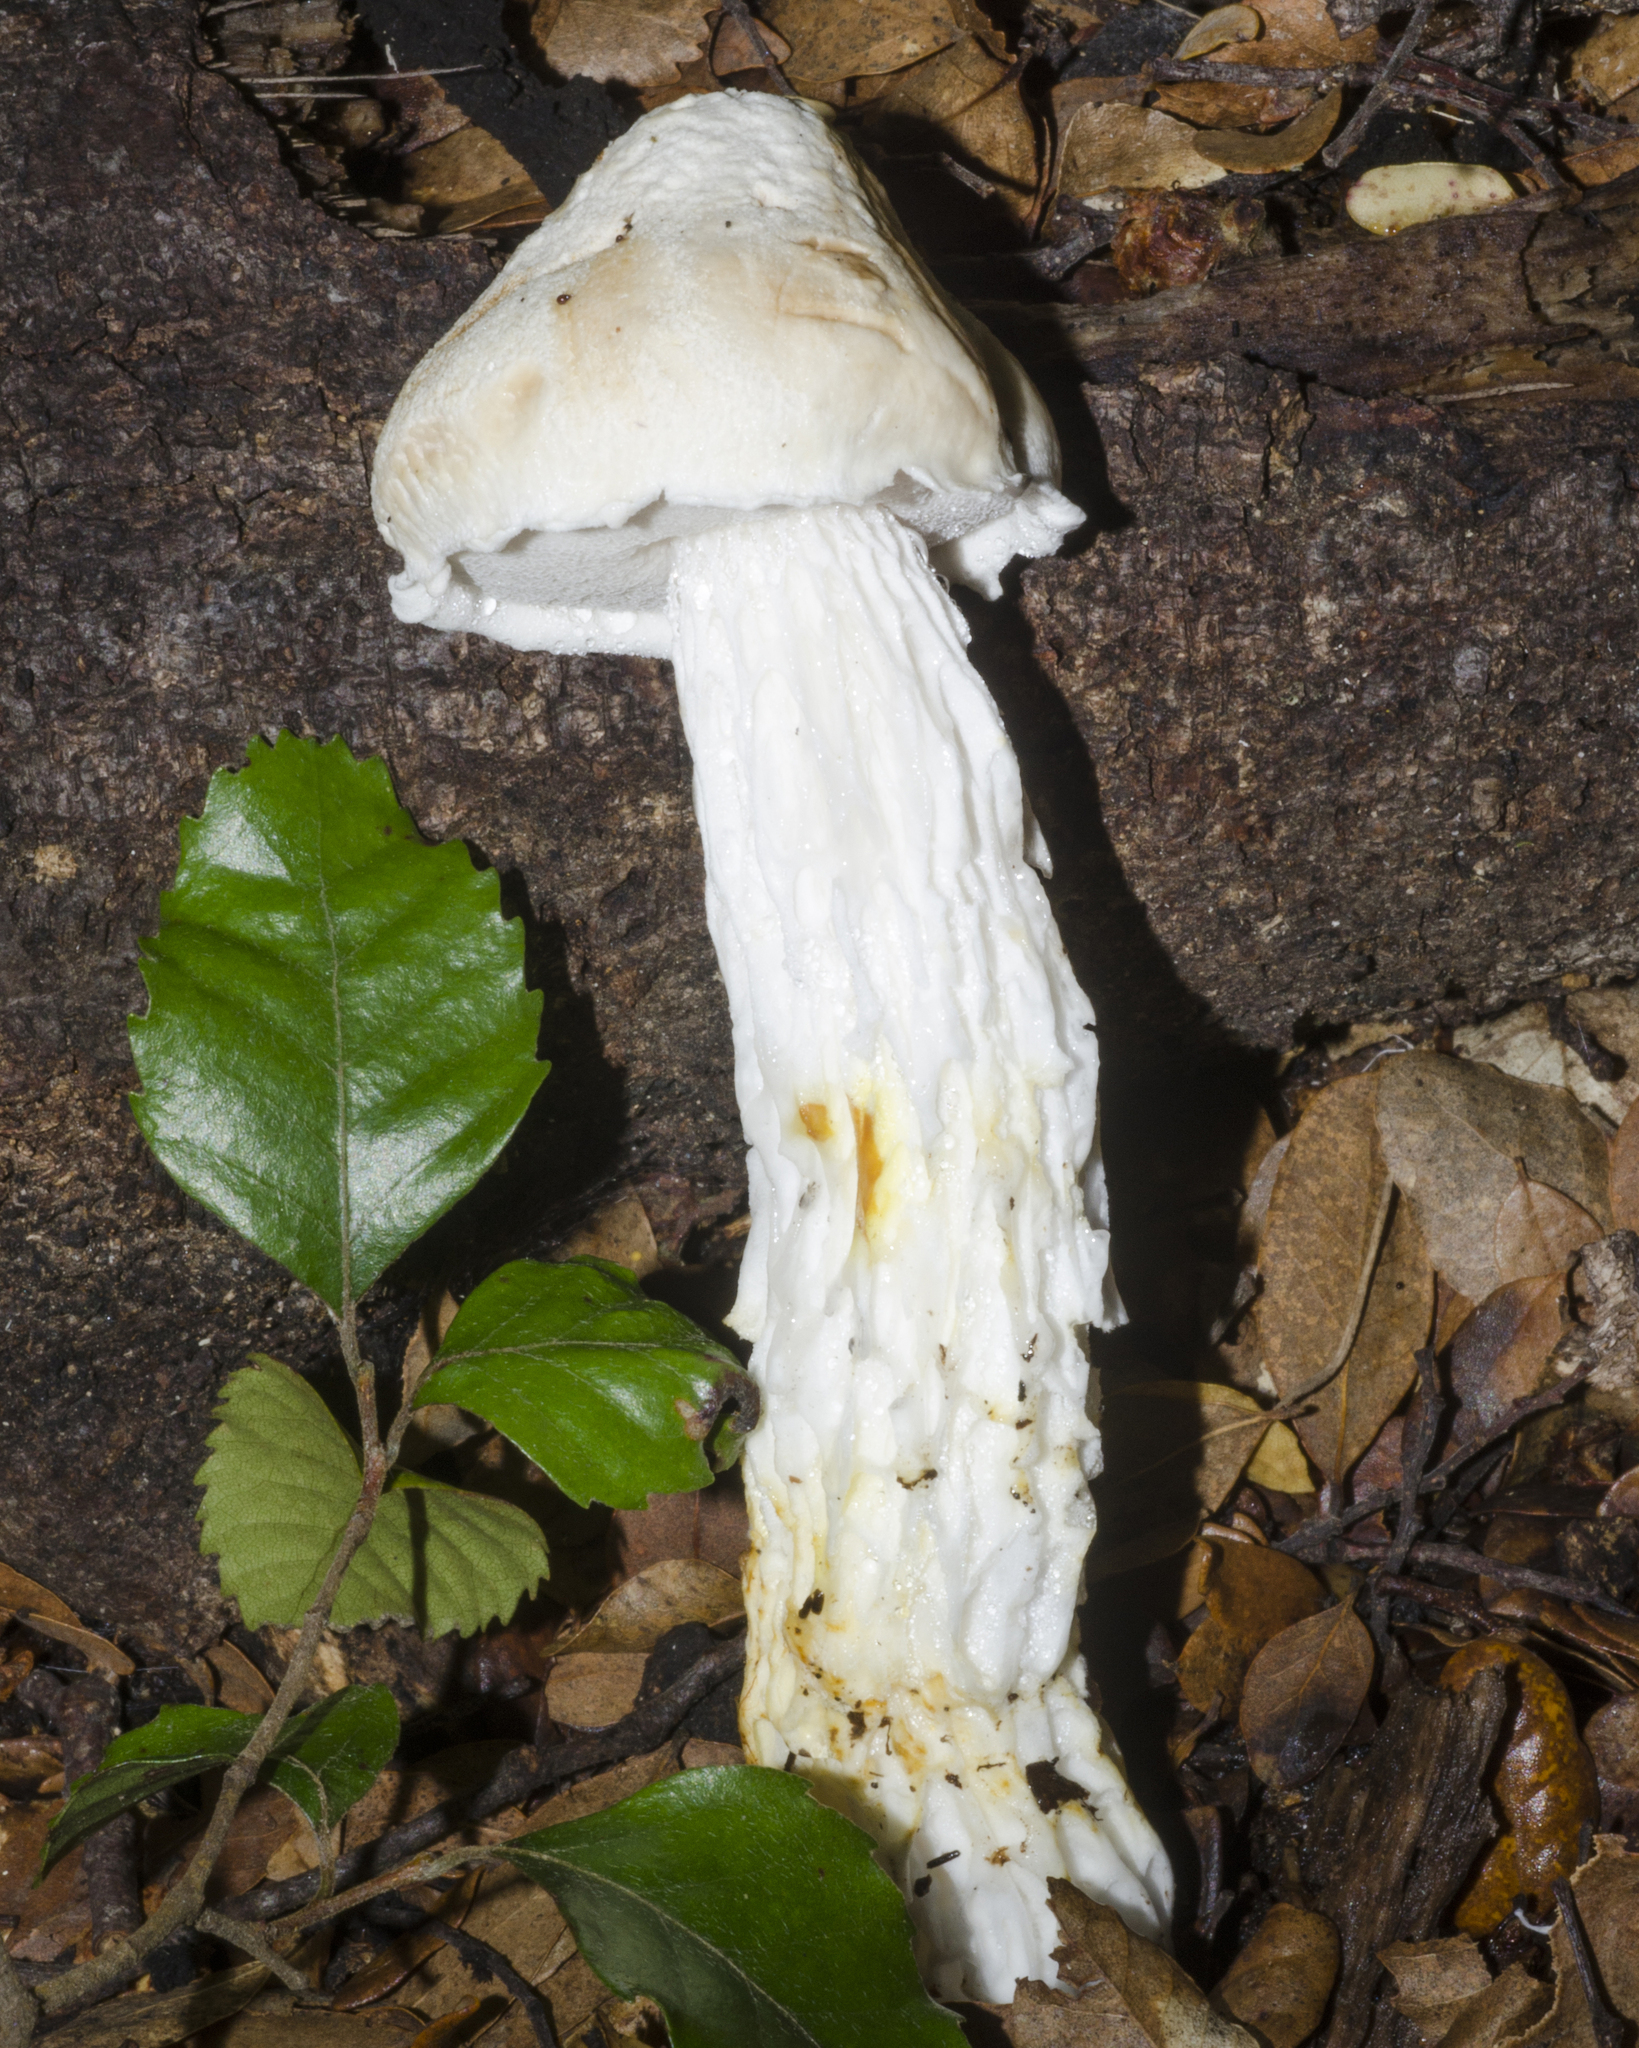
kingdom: Fungi
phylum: Basidiomycota
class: Agaricomycetes
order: Boletales
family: Boletaceae
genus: Fistulinella
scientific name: Fistulinella nivea
